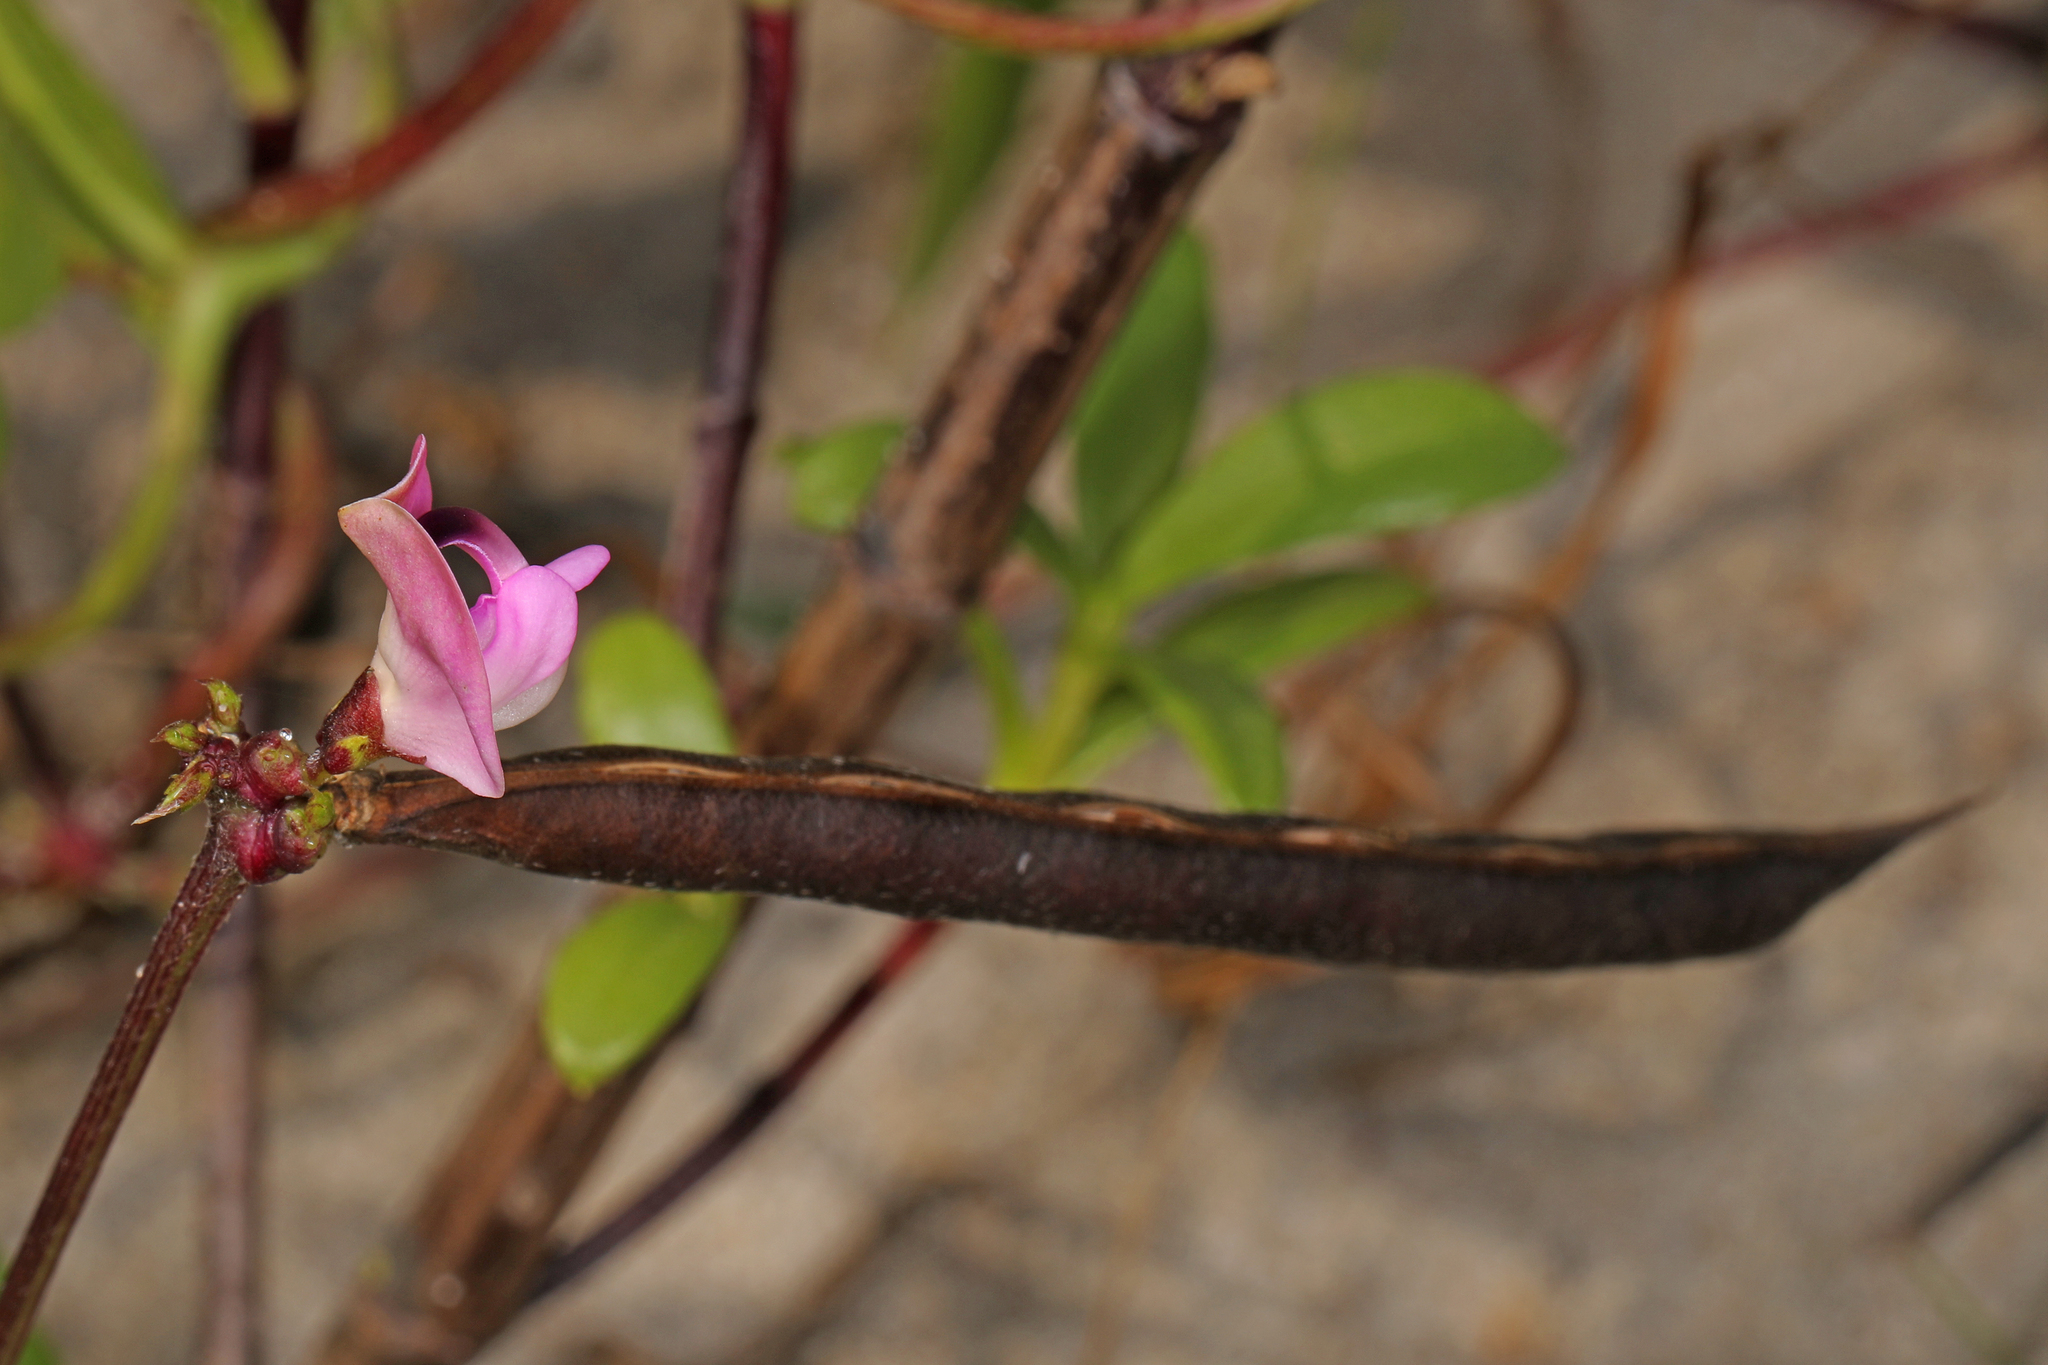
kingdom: Plantae
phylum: Tracheophyta
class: Magnoliopsida
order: Fabales
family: Fabaceae
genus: Strophostyles
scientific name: Strophostyles helvola
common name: Trailing wild bean
